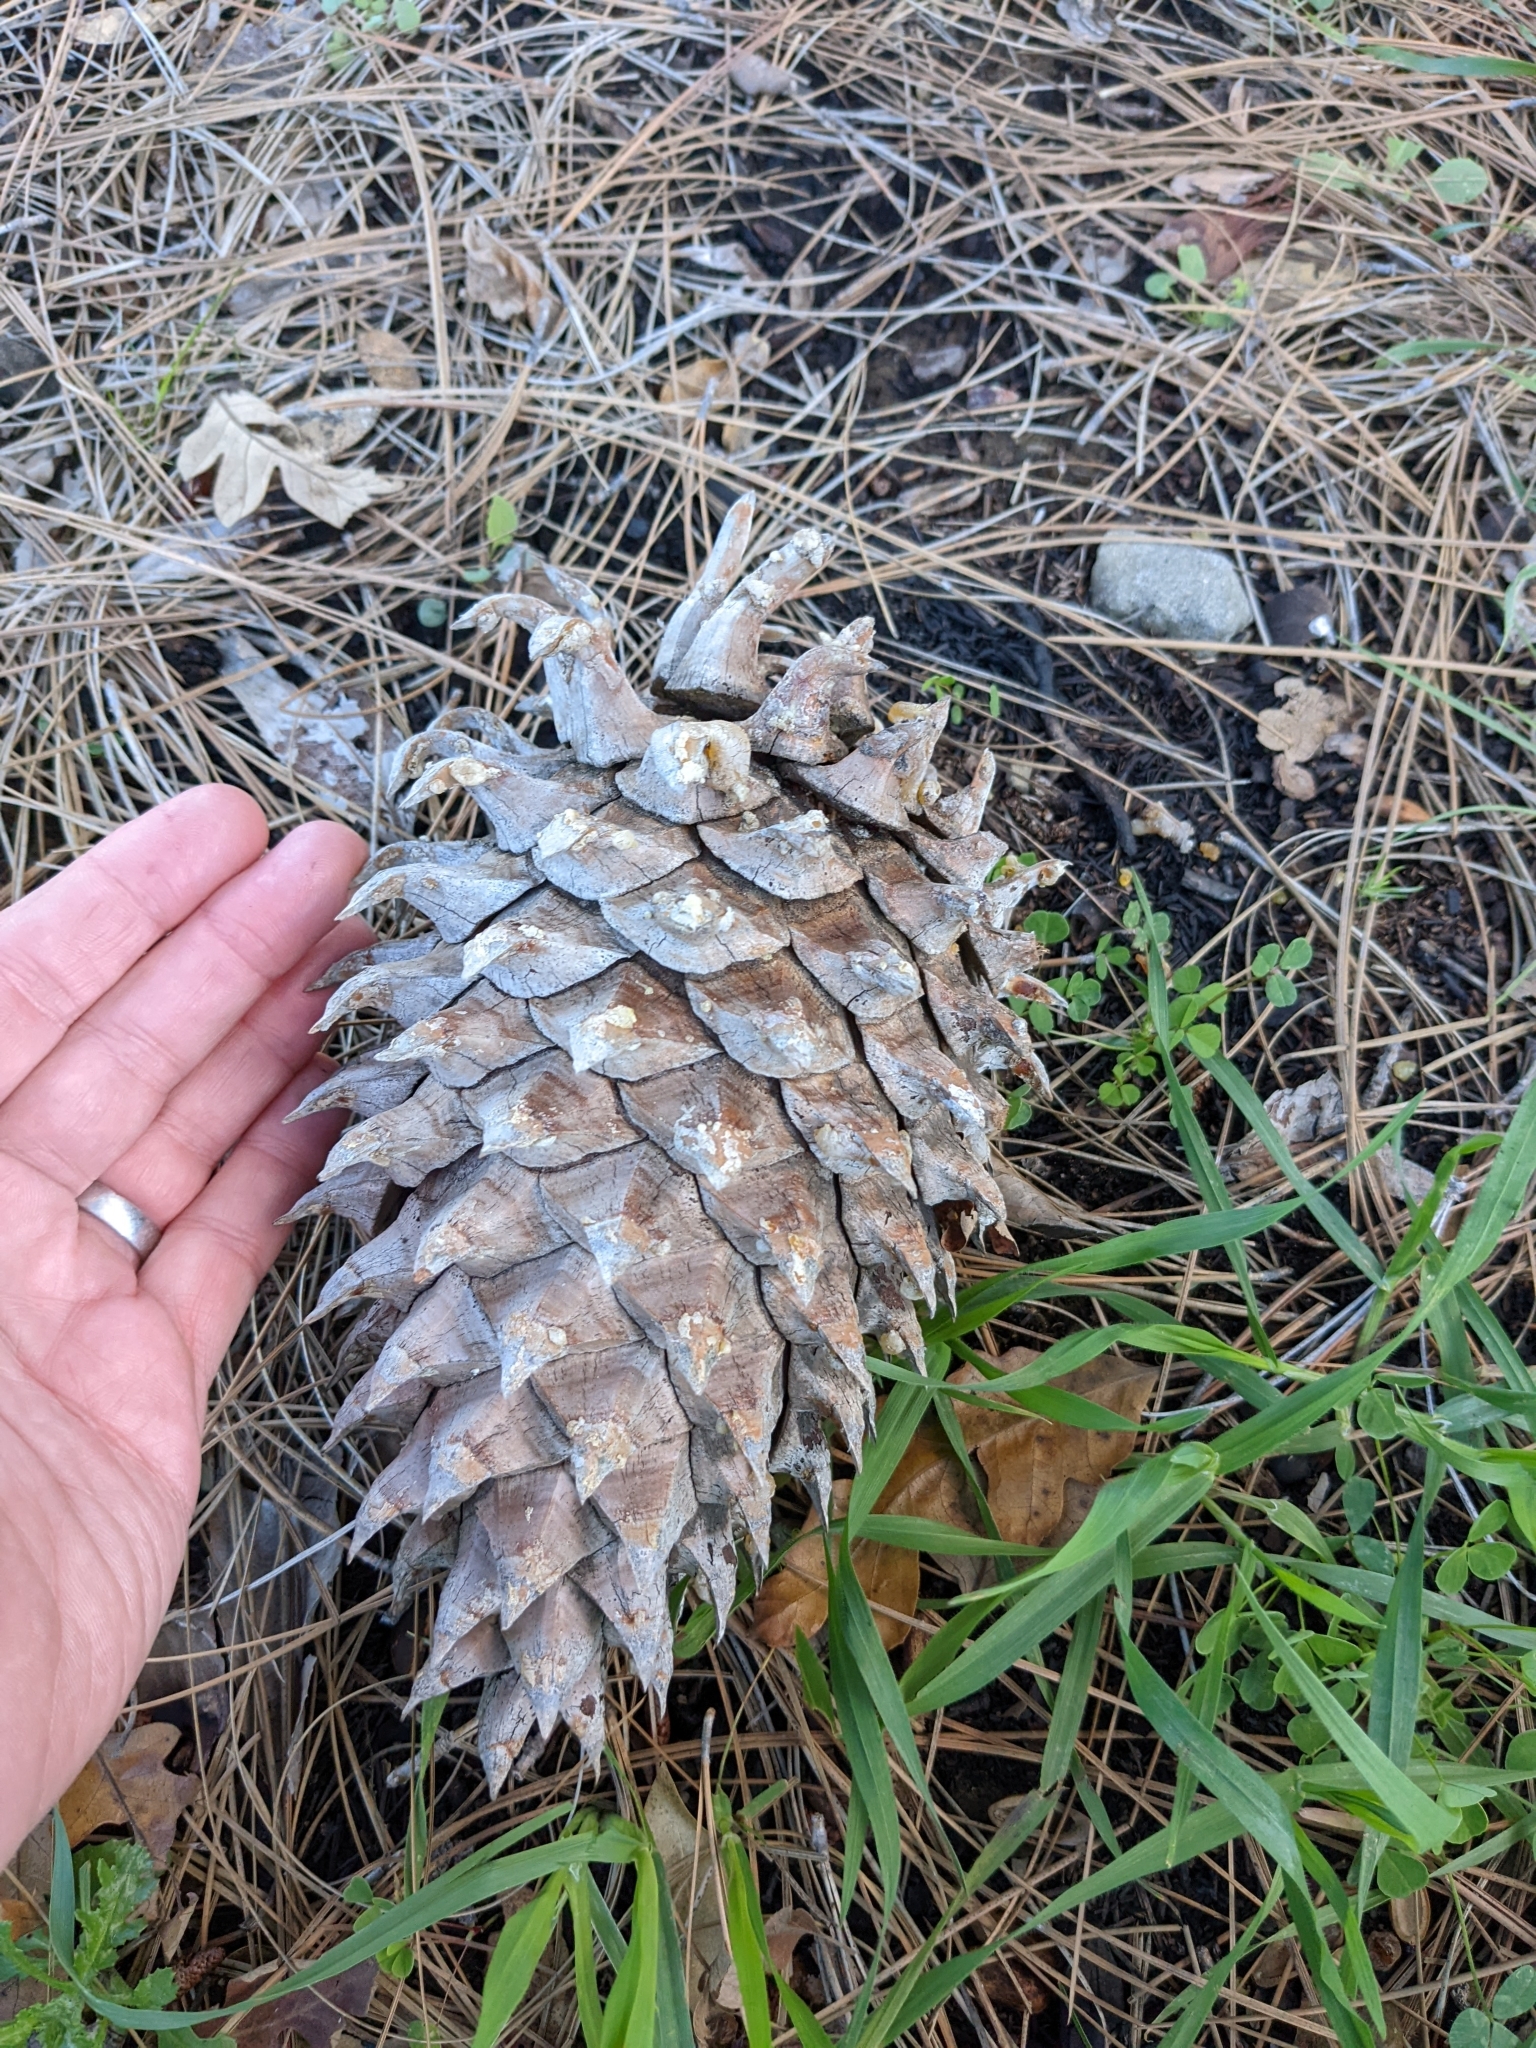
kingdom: Plantae
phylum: Tracheophyta
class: Pinopsida
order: Pinales
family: Pinaceae
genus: Pinus
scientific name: Pinus sabiniana
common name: Bull pine
